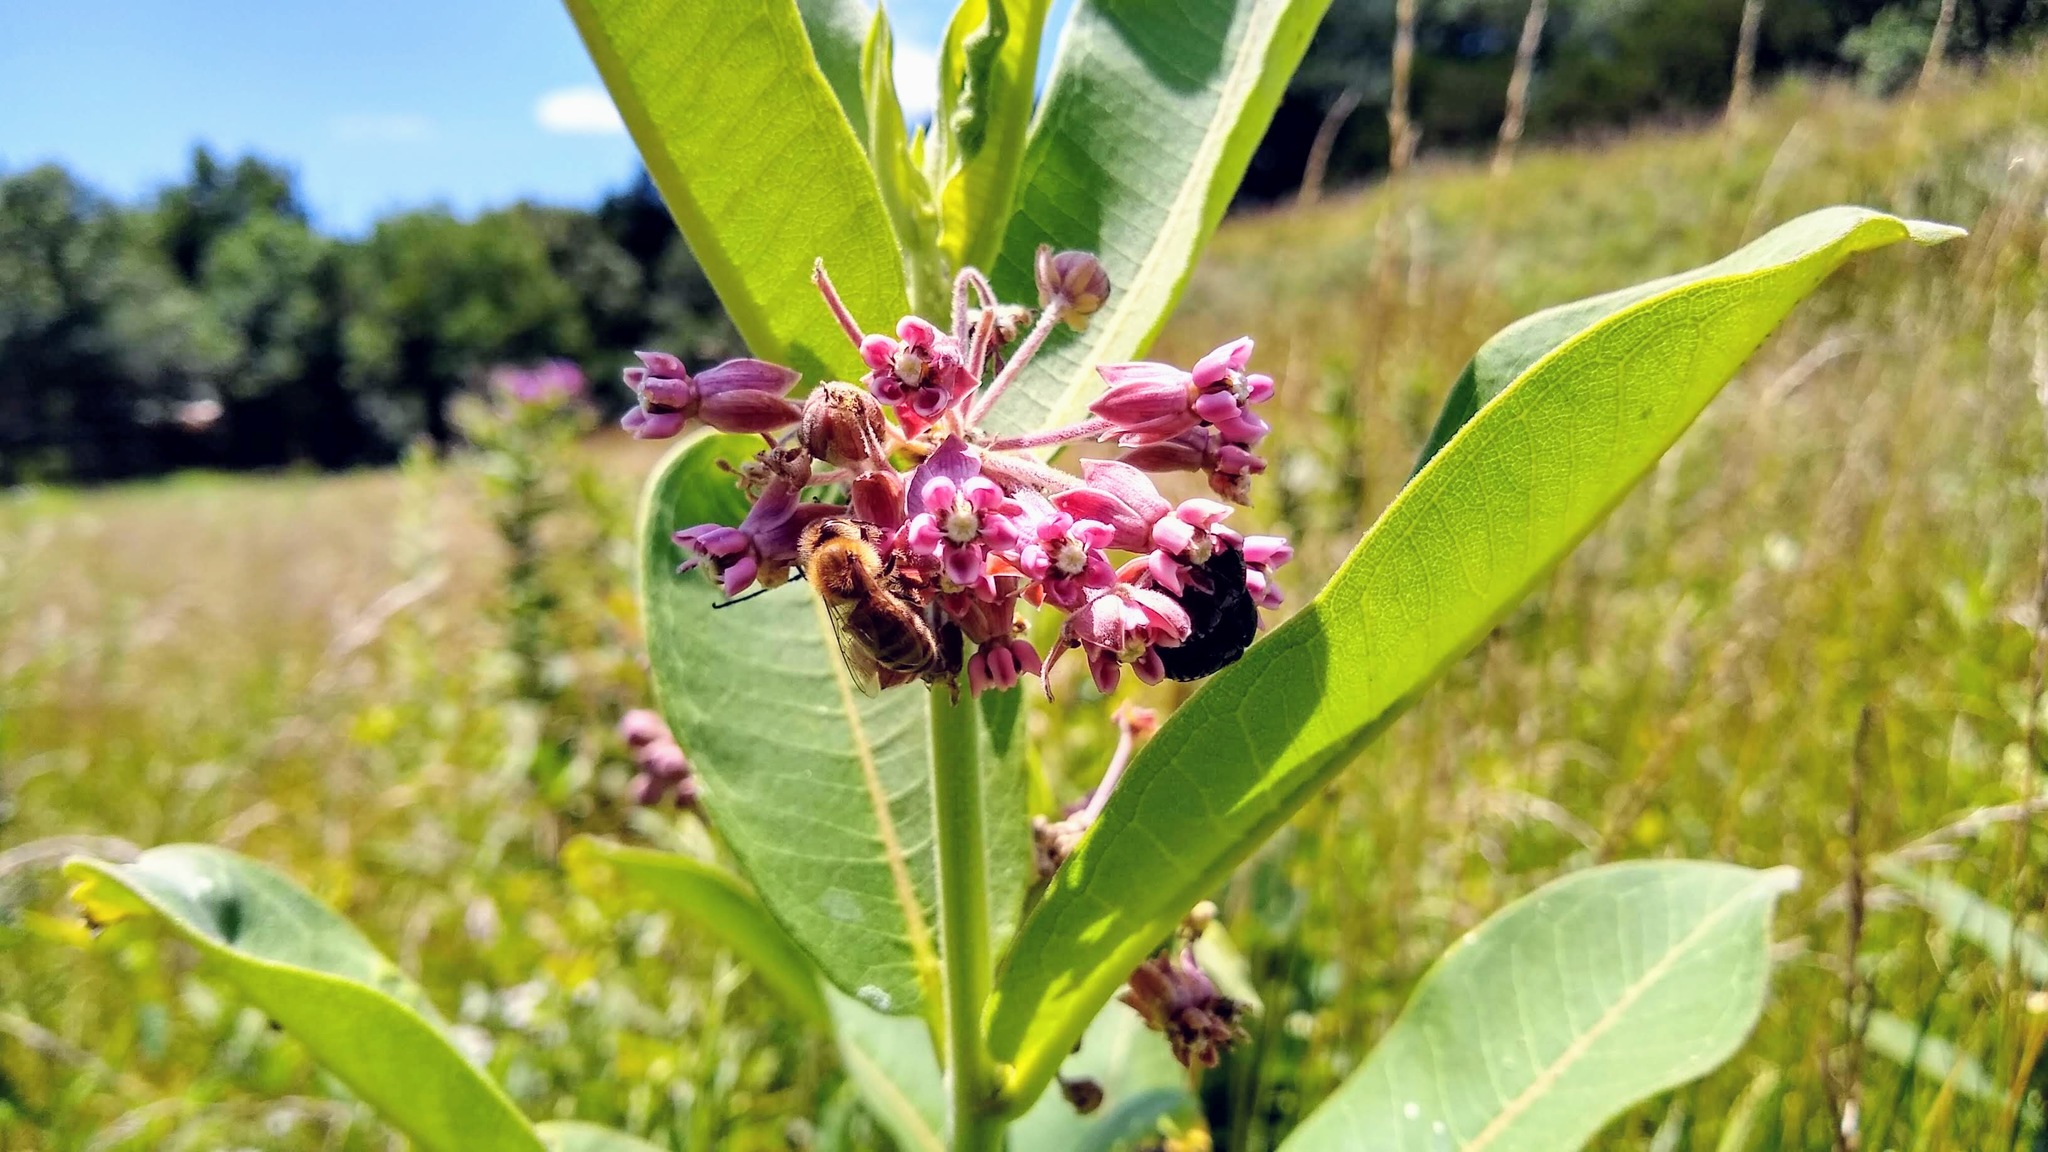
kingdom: Plantae
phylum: Tracheophyta
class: Magnoliopsida
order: Gentianales
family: Apocynaceae
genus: Asclepias
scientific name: Asclepias syriaca
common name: Common milkweed
